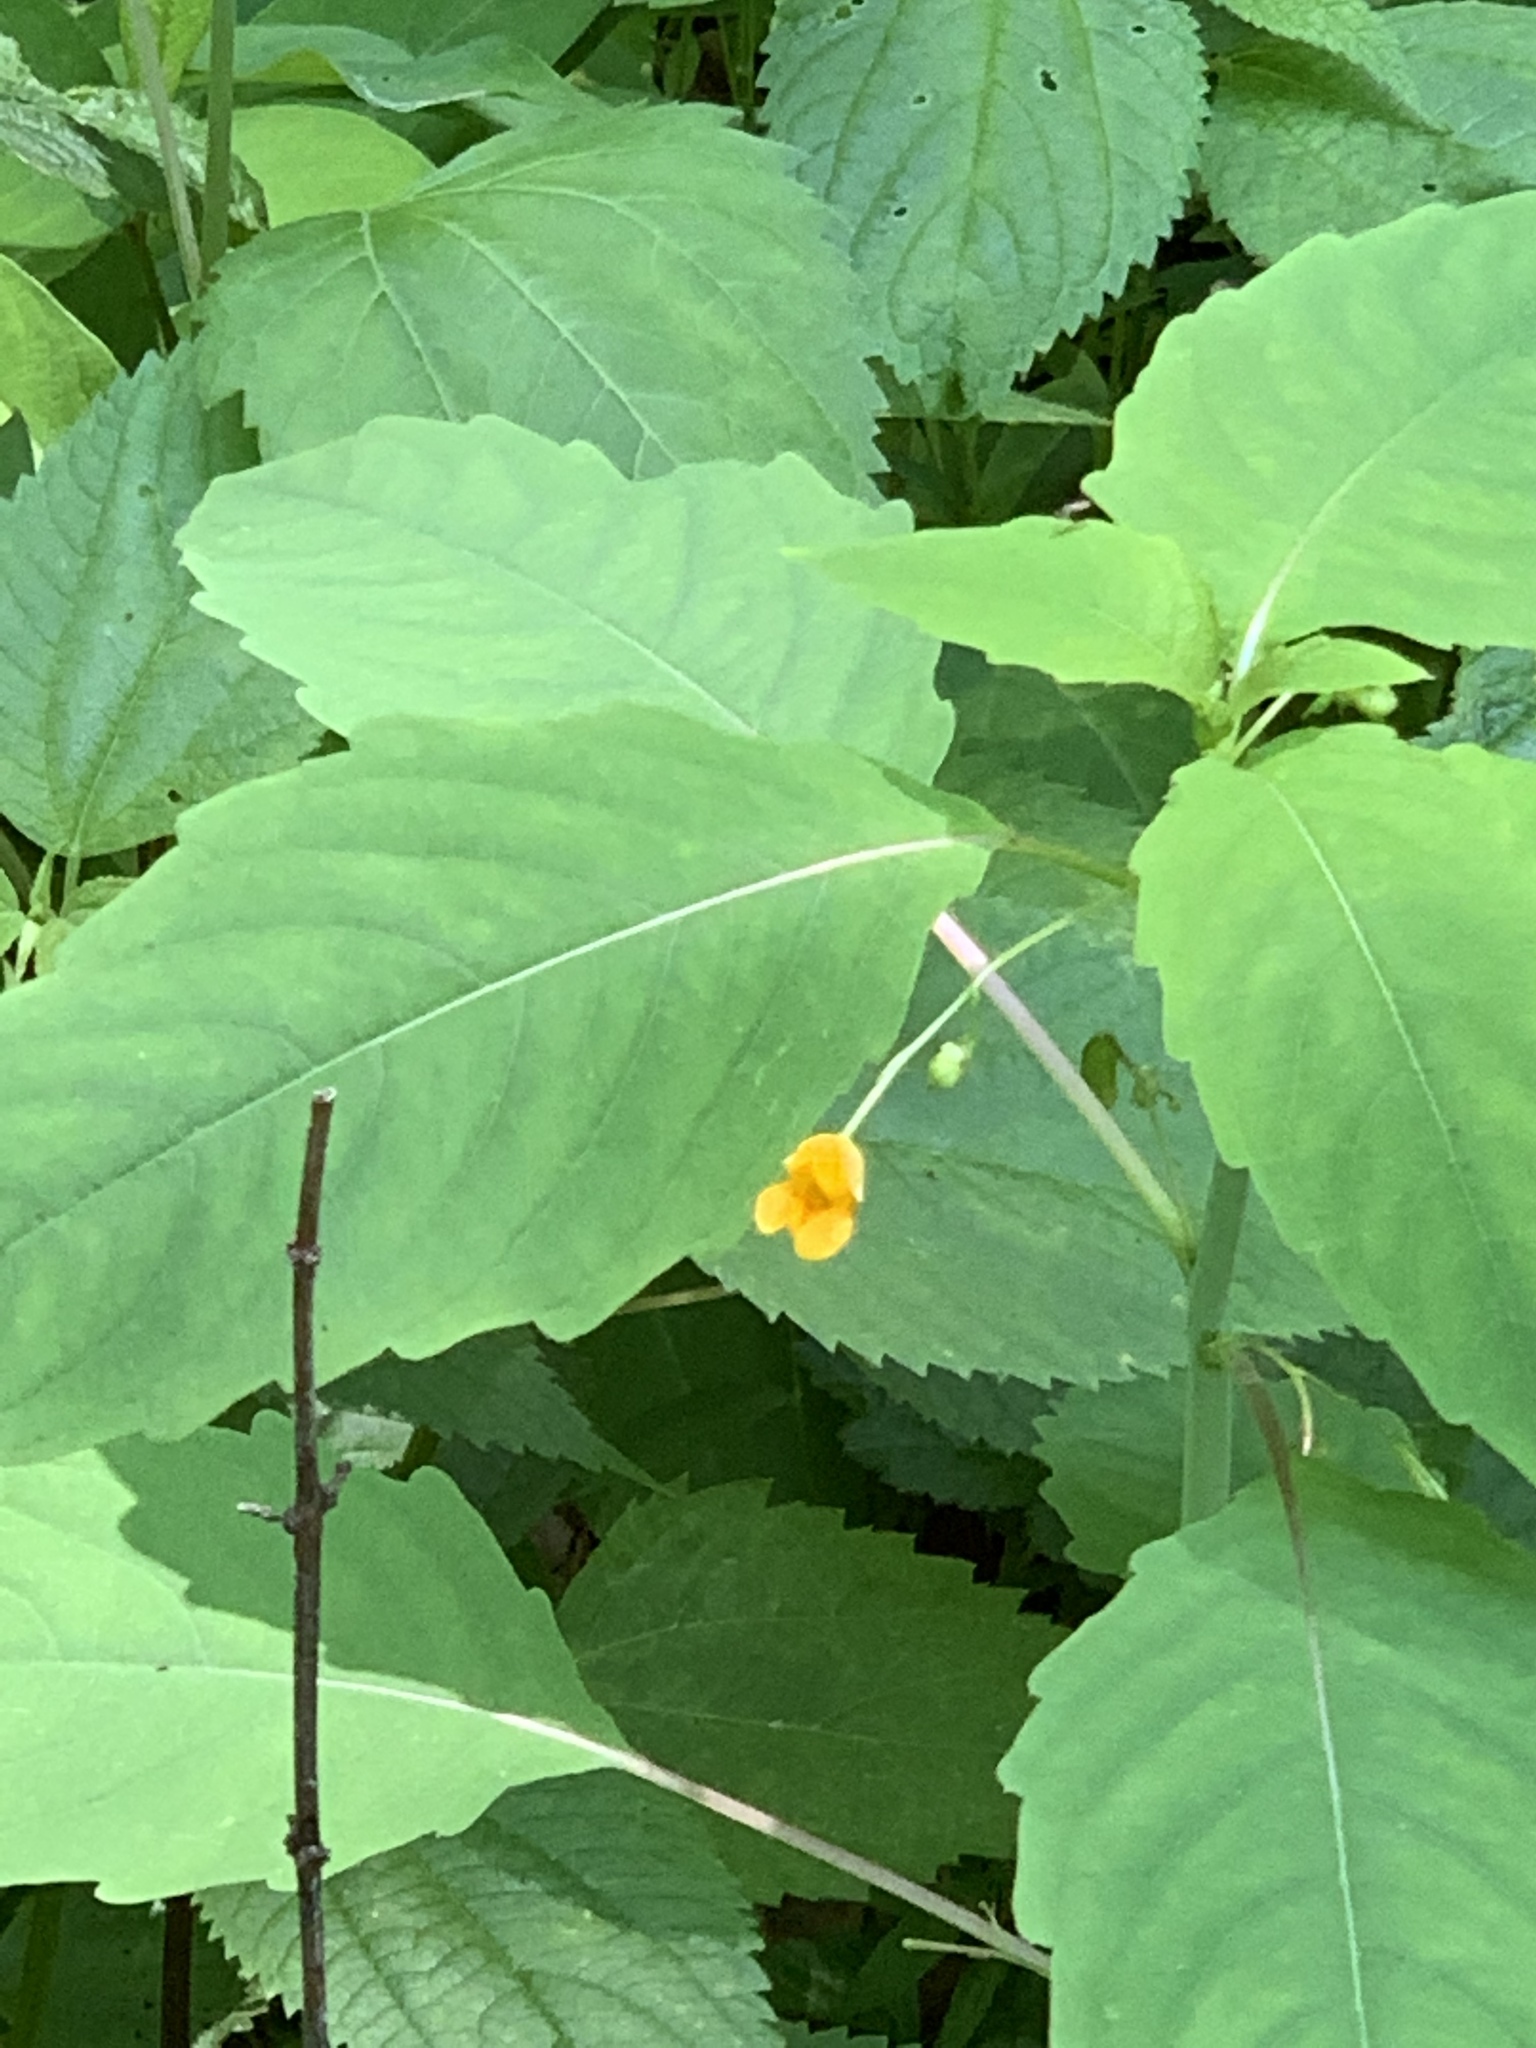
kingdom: Plantae
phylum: Tracheophyta
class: Magnoliopsida
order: Ericales
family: Balsaminaceae
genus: Impatiens
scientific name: Impatiens capensis
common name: Orange balsam
